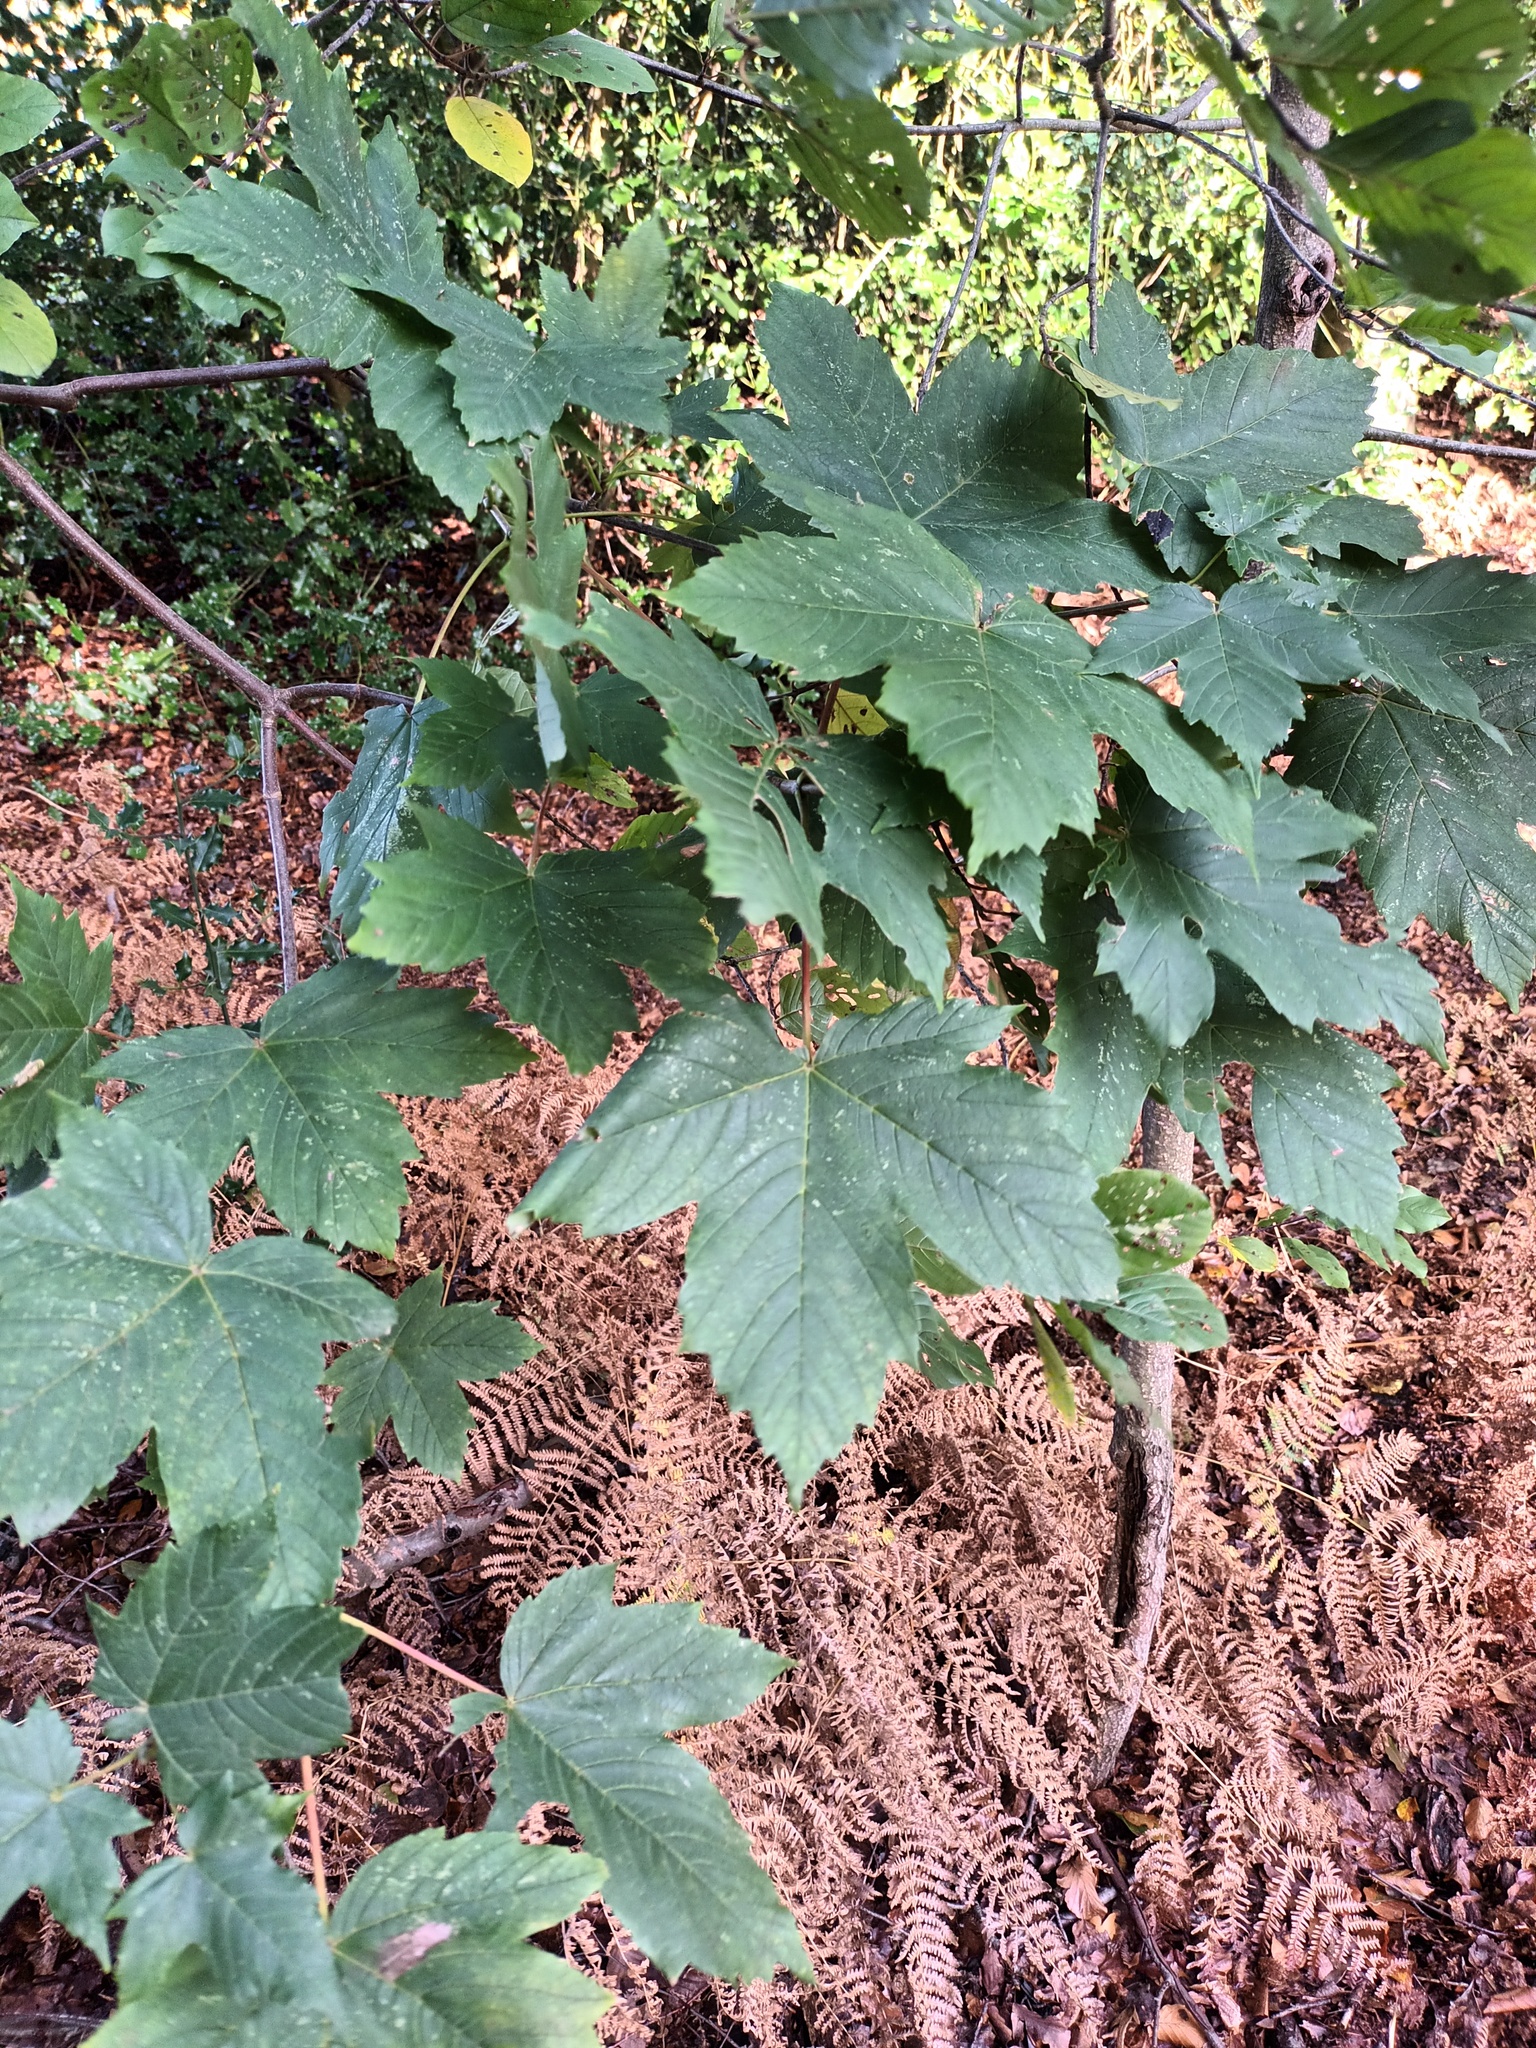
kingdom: Plantae
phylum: Tracheophyta
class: Magnoliopsida
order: Sapindales
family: Sapindaceae
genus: Acer
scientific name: Acer pseudoplatanus
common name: Sycamore
